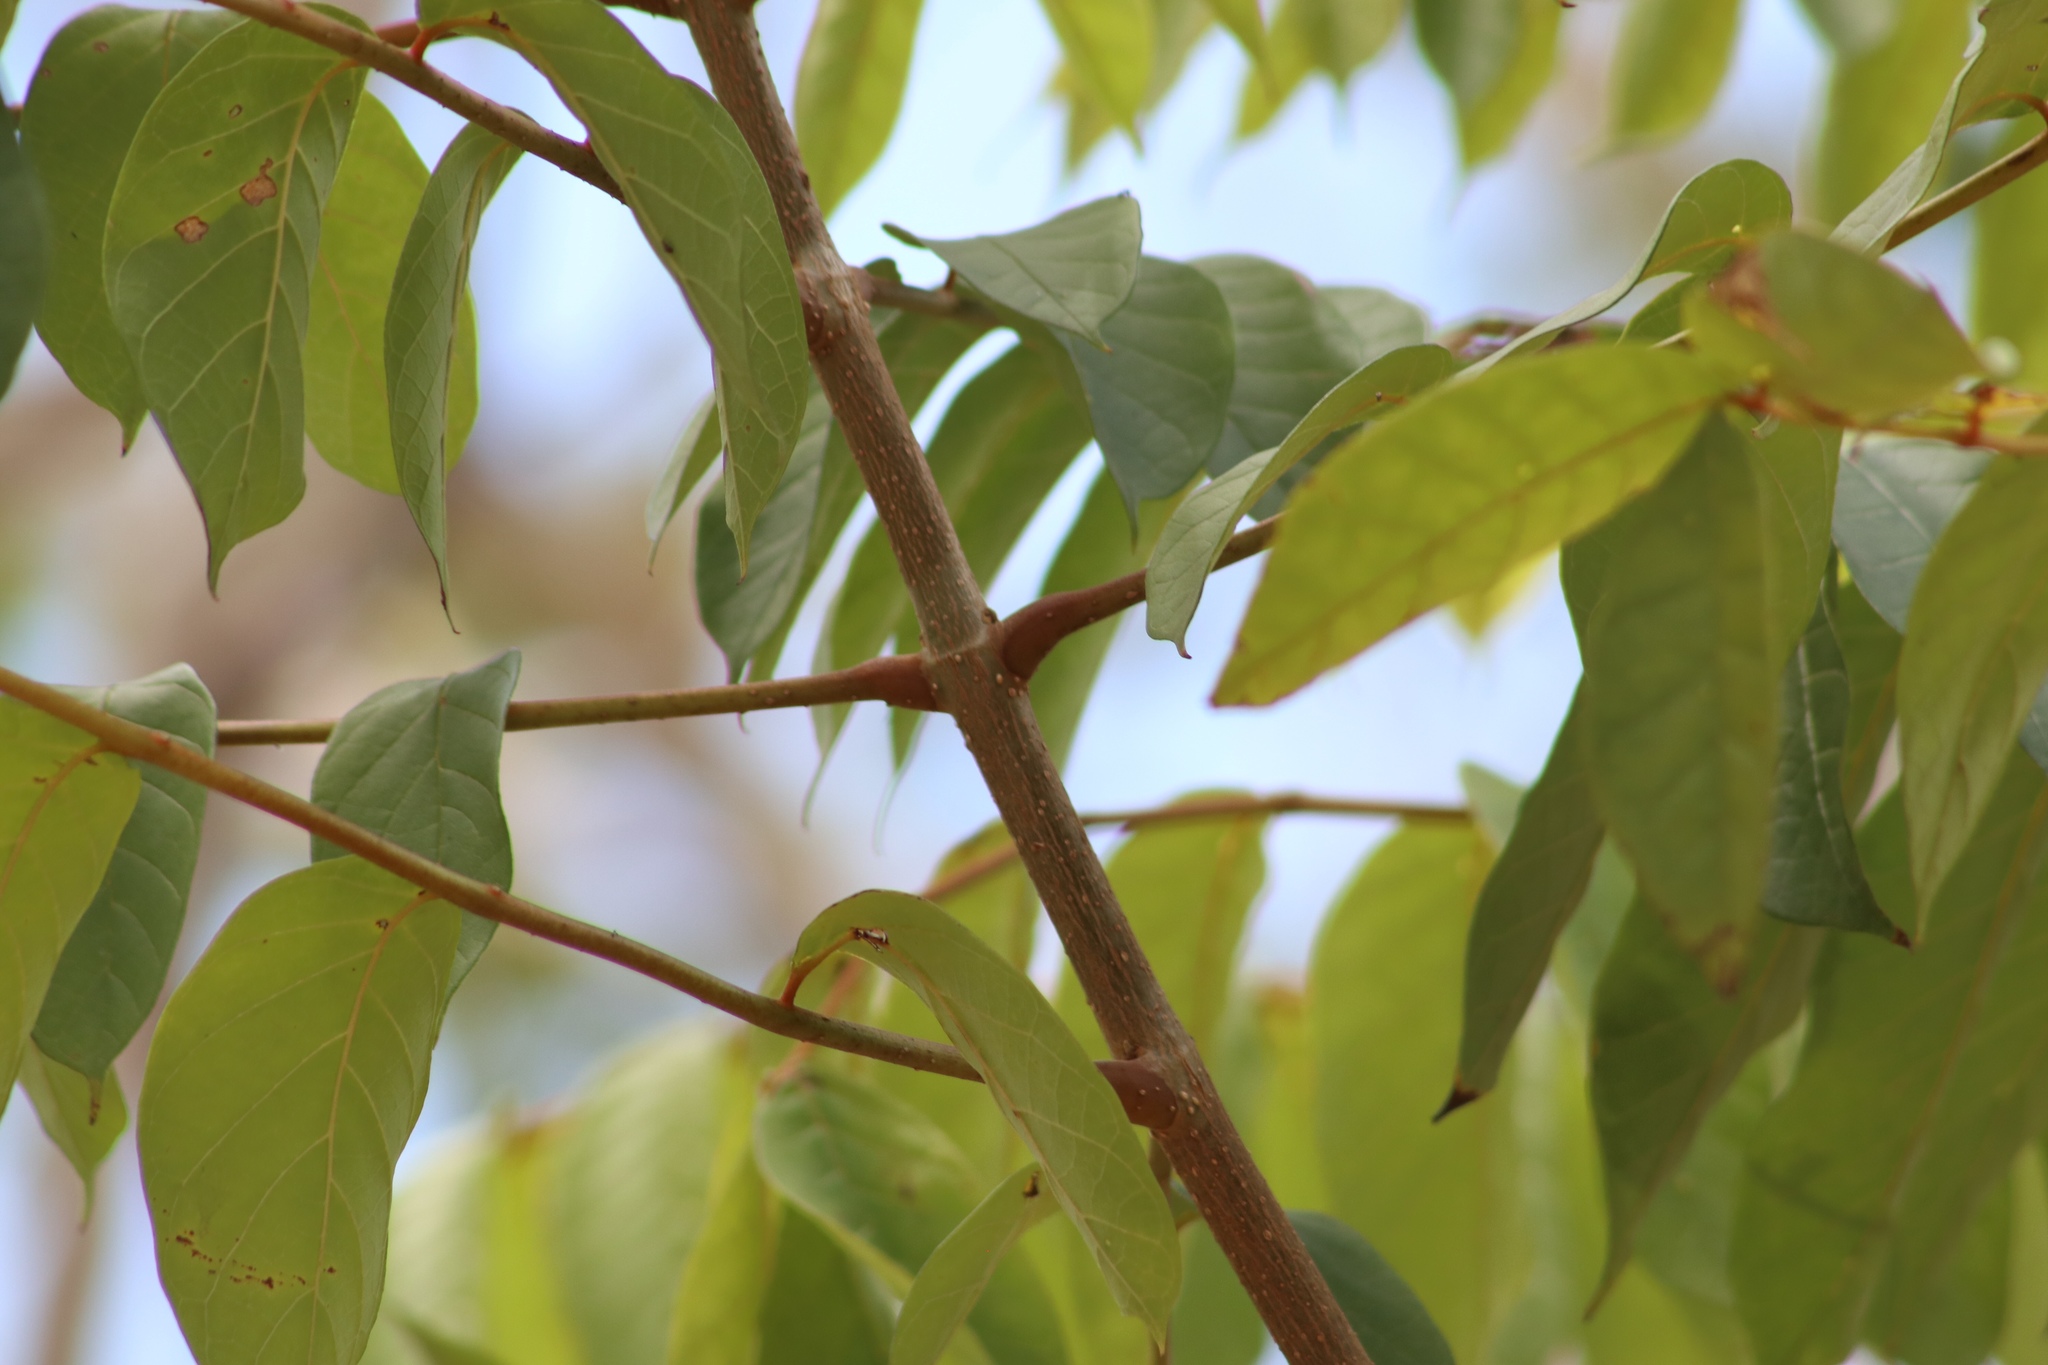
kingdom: Plantae
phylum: Tracheophyta
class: Magnoliopsida
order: Lamiales
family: Bignoniaceae
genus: Spathodea
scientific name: Spathodea campanulata
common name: African tuliptree
